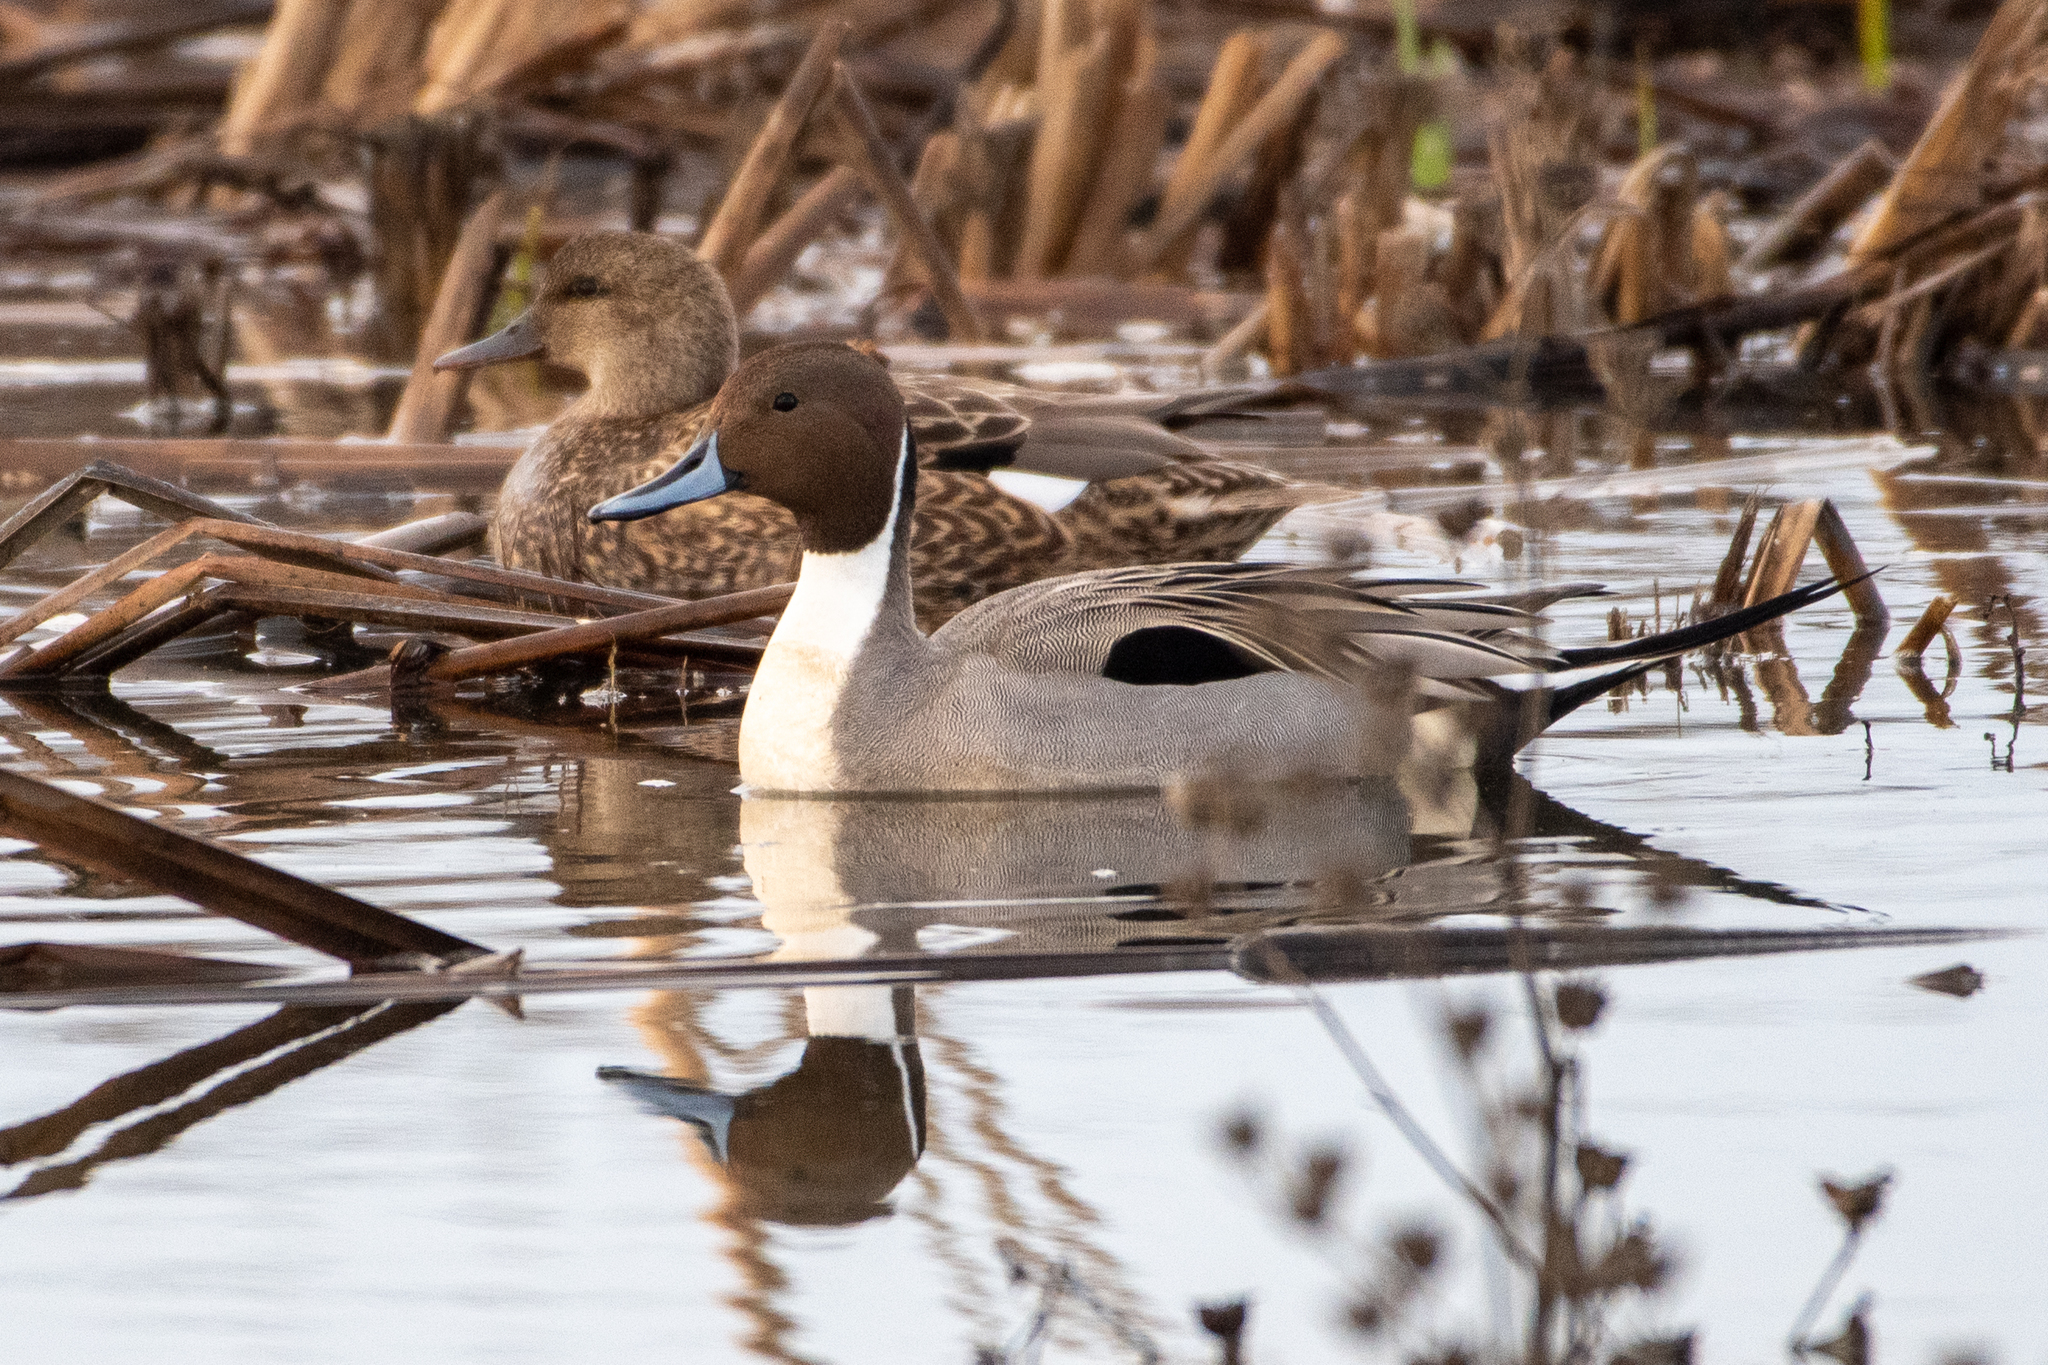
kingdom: Animalia
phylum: Chordata
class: Aves
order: Anseriformes
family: Anatidae
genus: Anas
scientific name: Anas acuta
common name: Northern pintail
